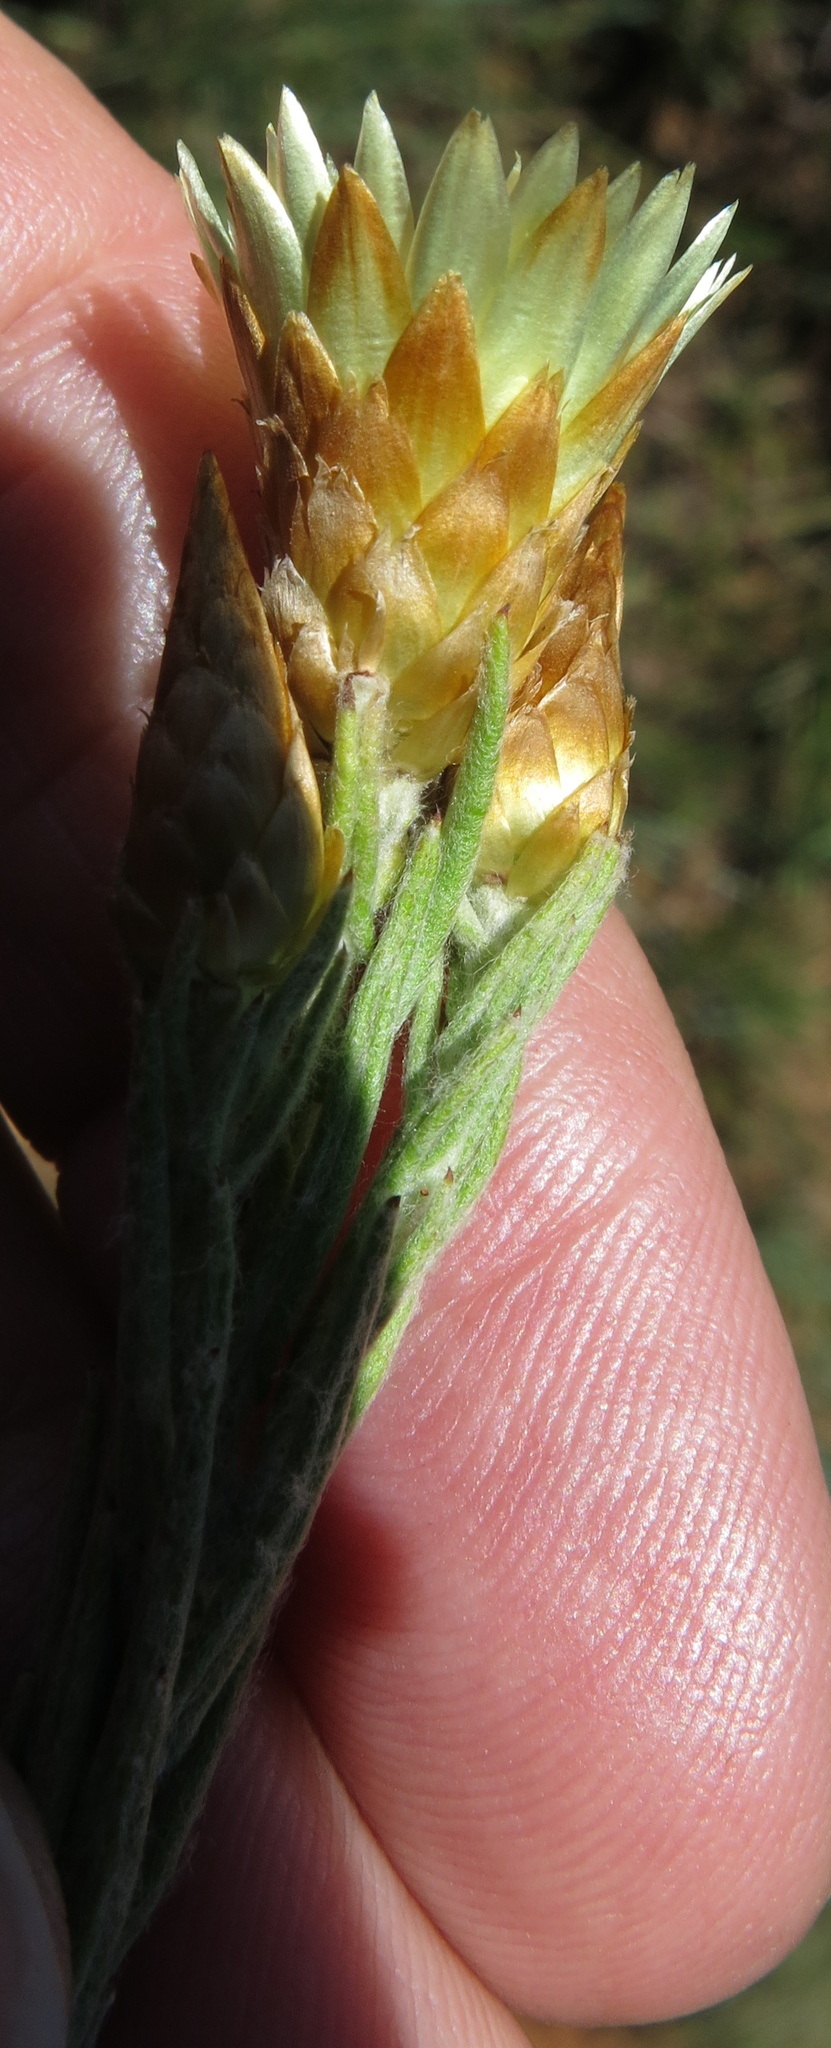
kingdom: Plantae
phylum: Tracheophyta
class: Magnoliopsida
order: Asterales
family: Asteraceae
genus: Helichrysum
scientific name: Helichrysum herbaceum
